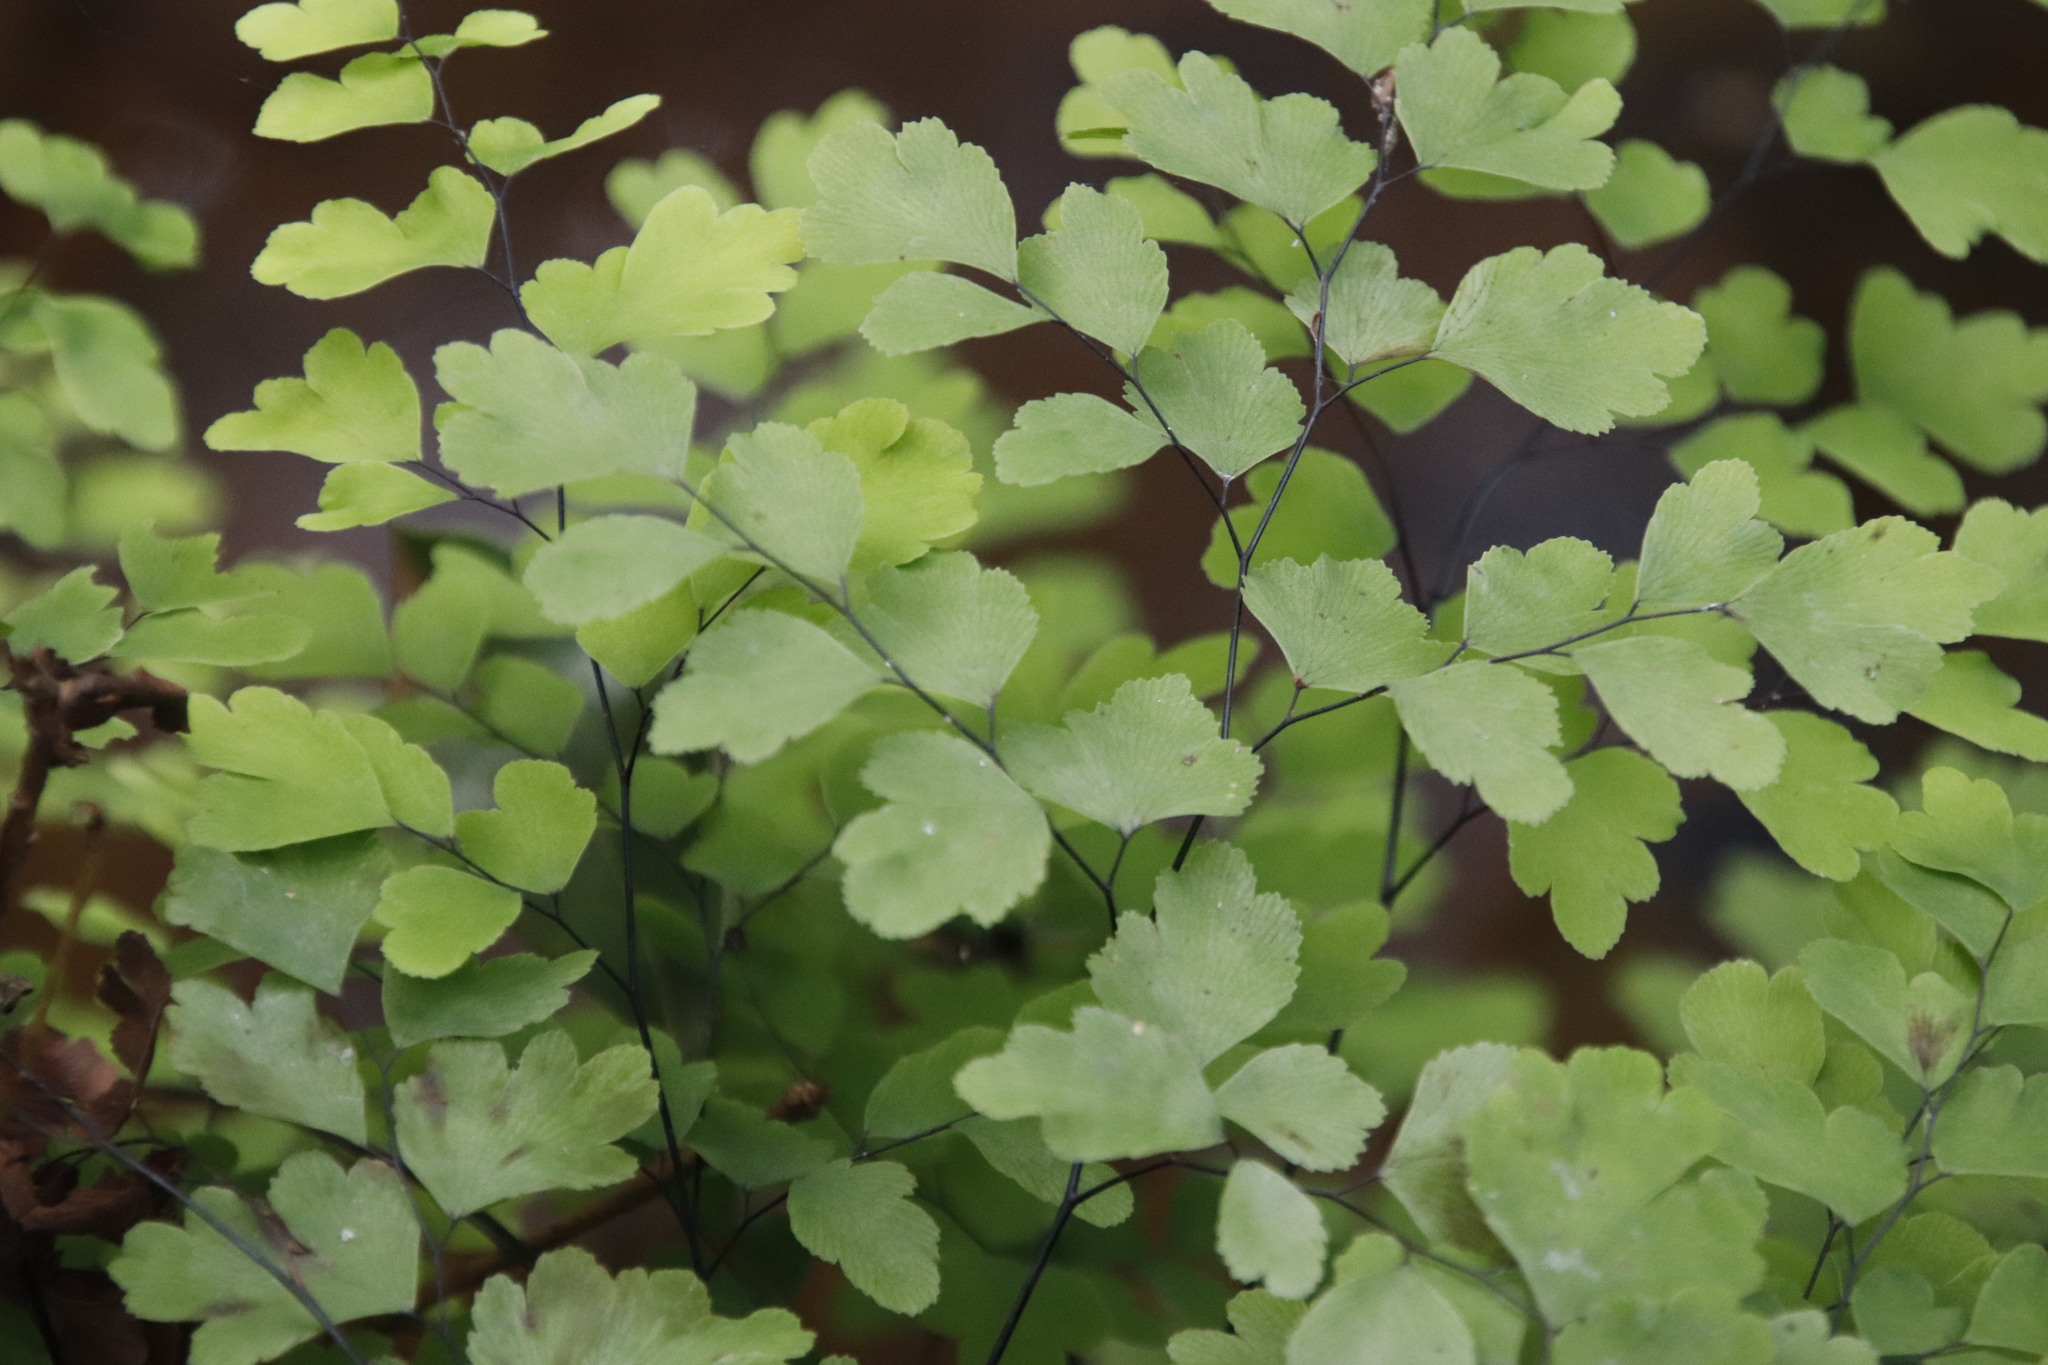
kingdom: Plantae
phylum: Tracheophyta
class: Polypodiopsida
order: Polypodiales
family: Pteridaceae
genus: Adiantum
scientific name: Adiantum capillus-veneris
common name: Maidenhair fern
